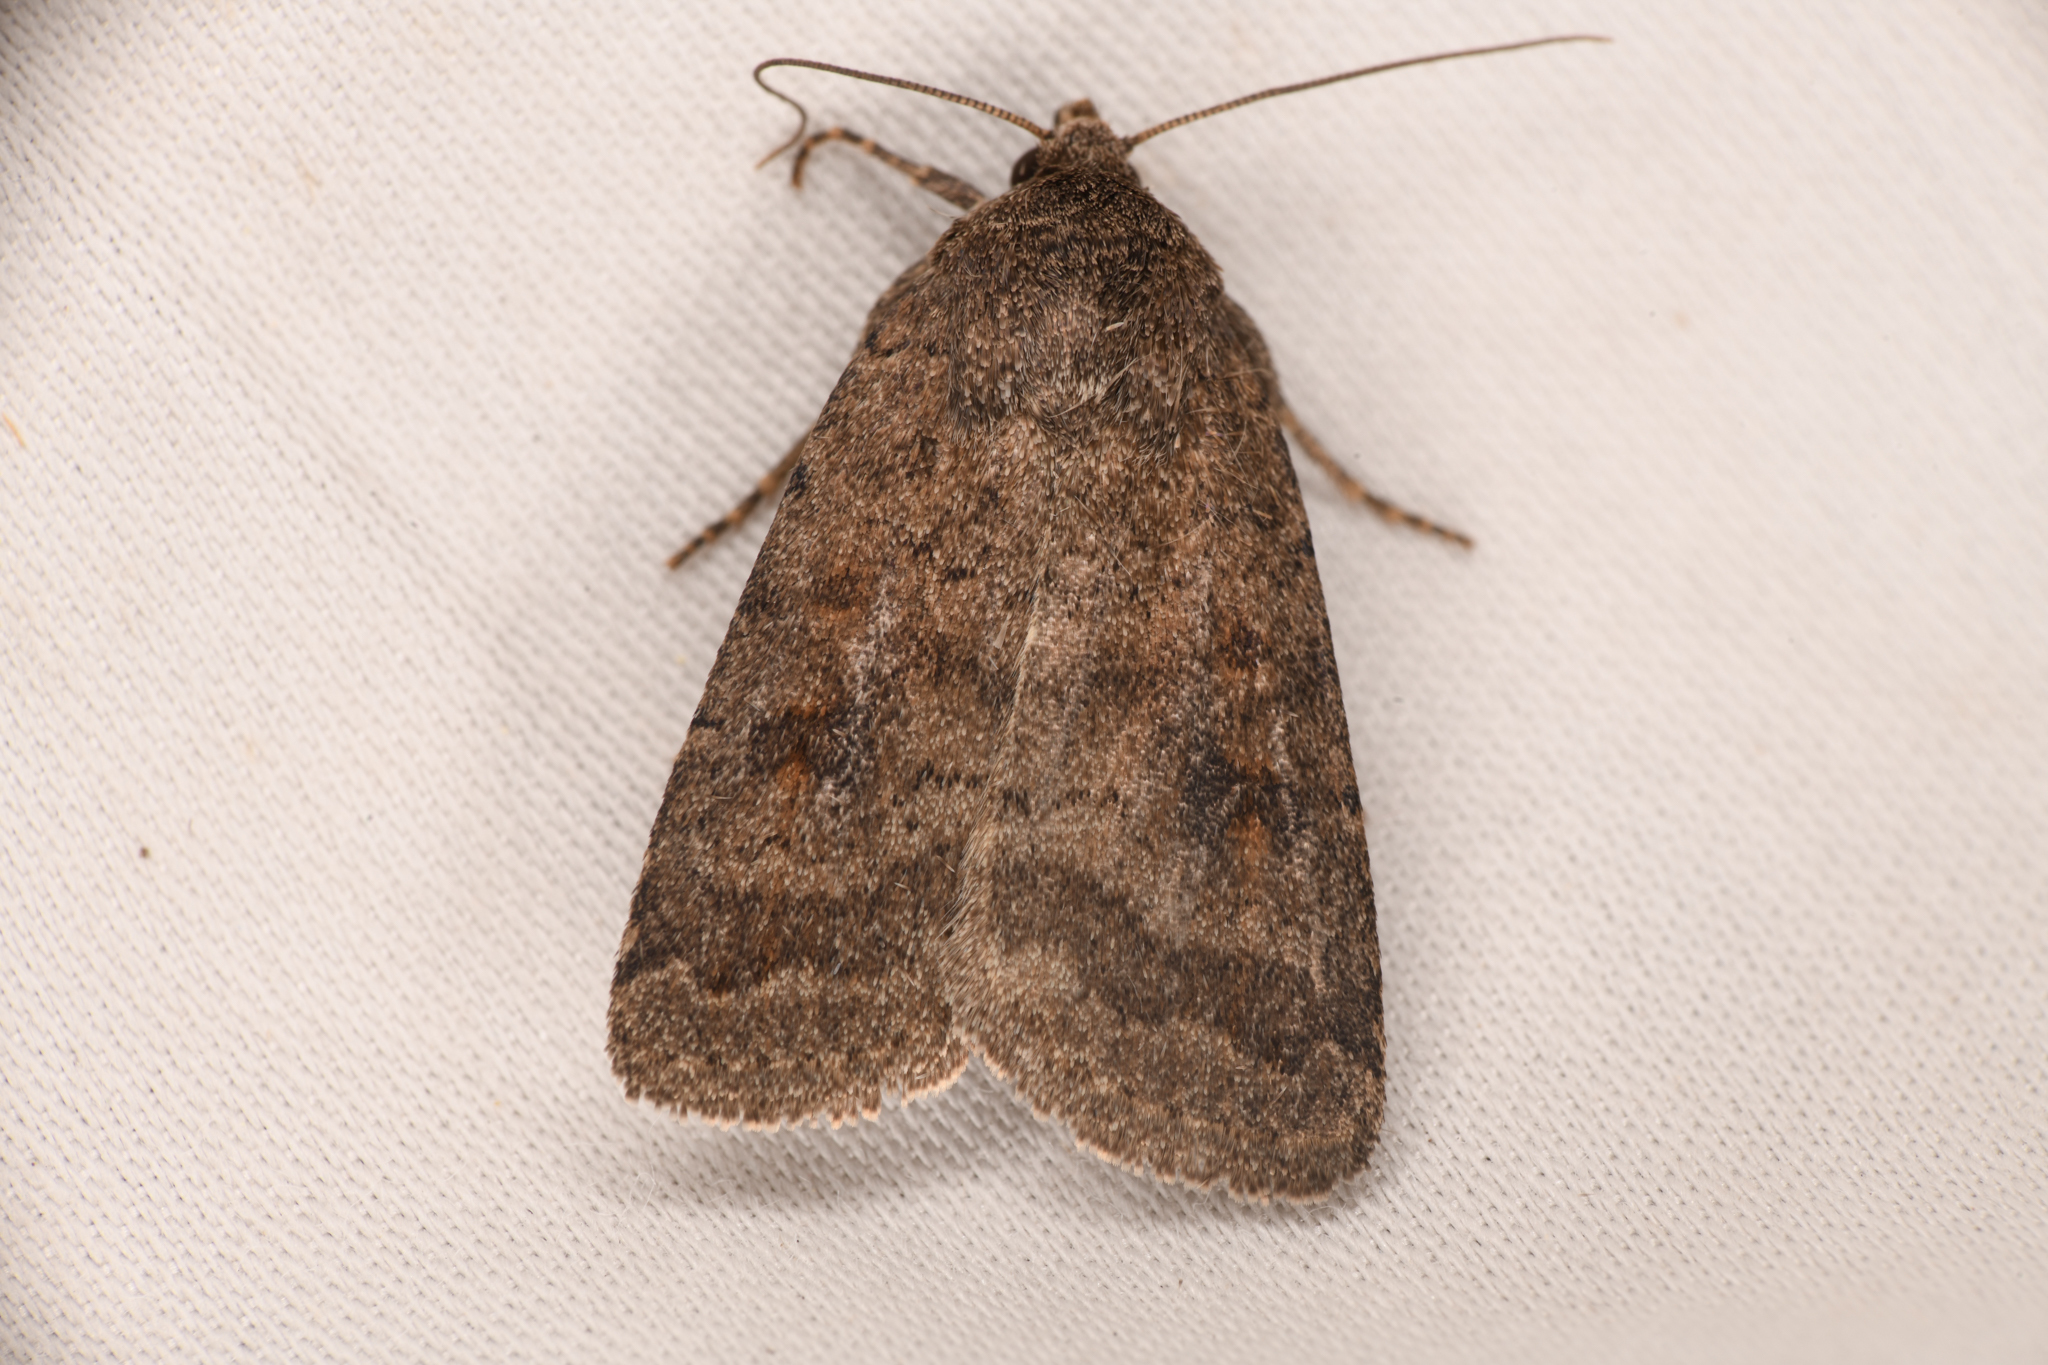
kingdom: Animalia
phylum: Arthropoda
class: Insecta
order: Lepidoptera
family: Noctuidae
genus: Caradrina
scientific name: Caradrina morpheus
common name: Mottled rustic
